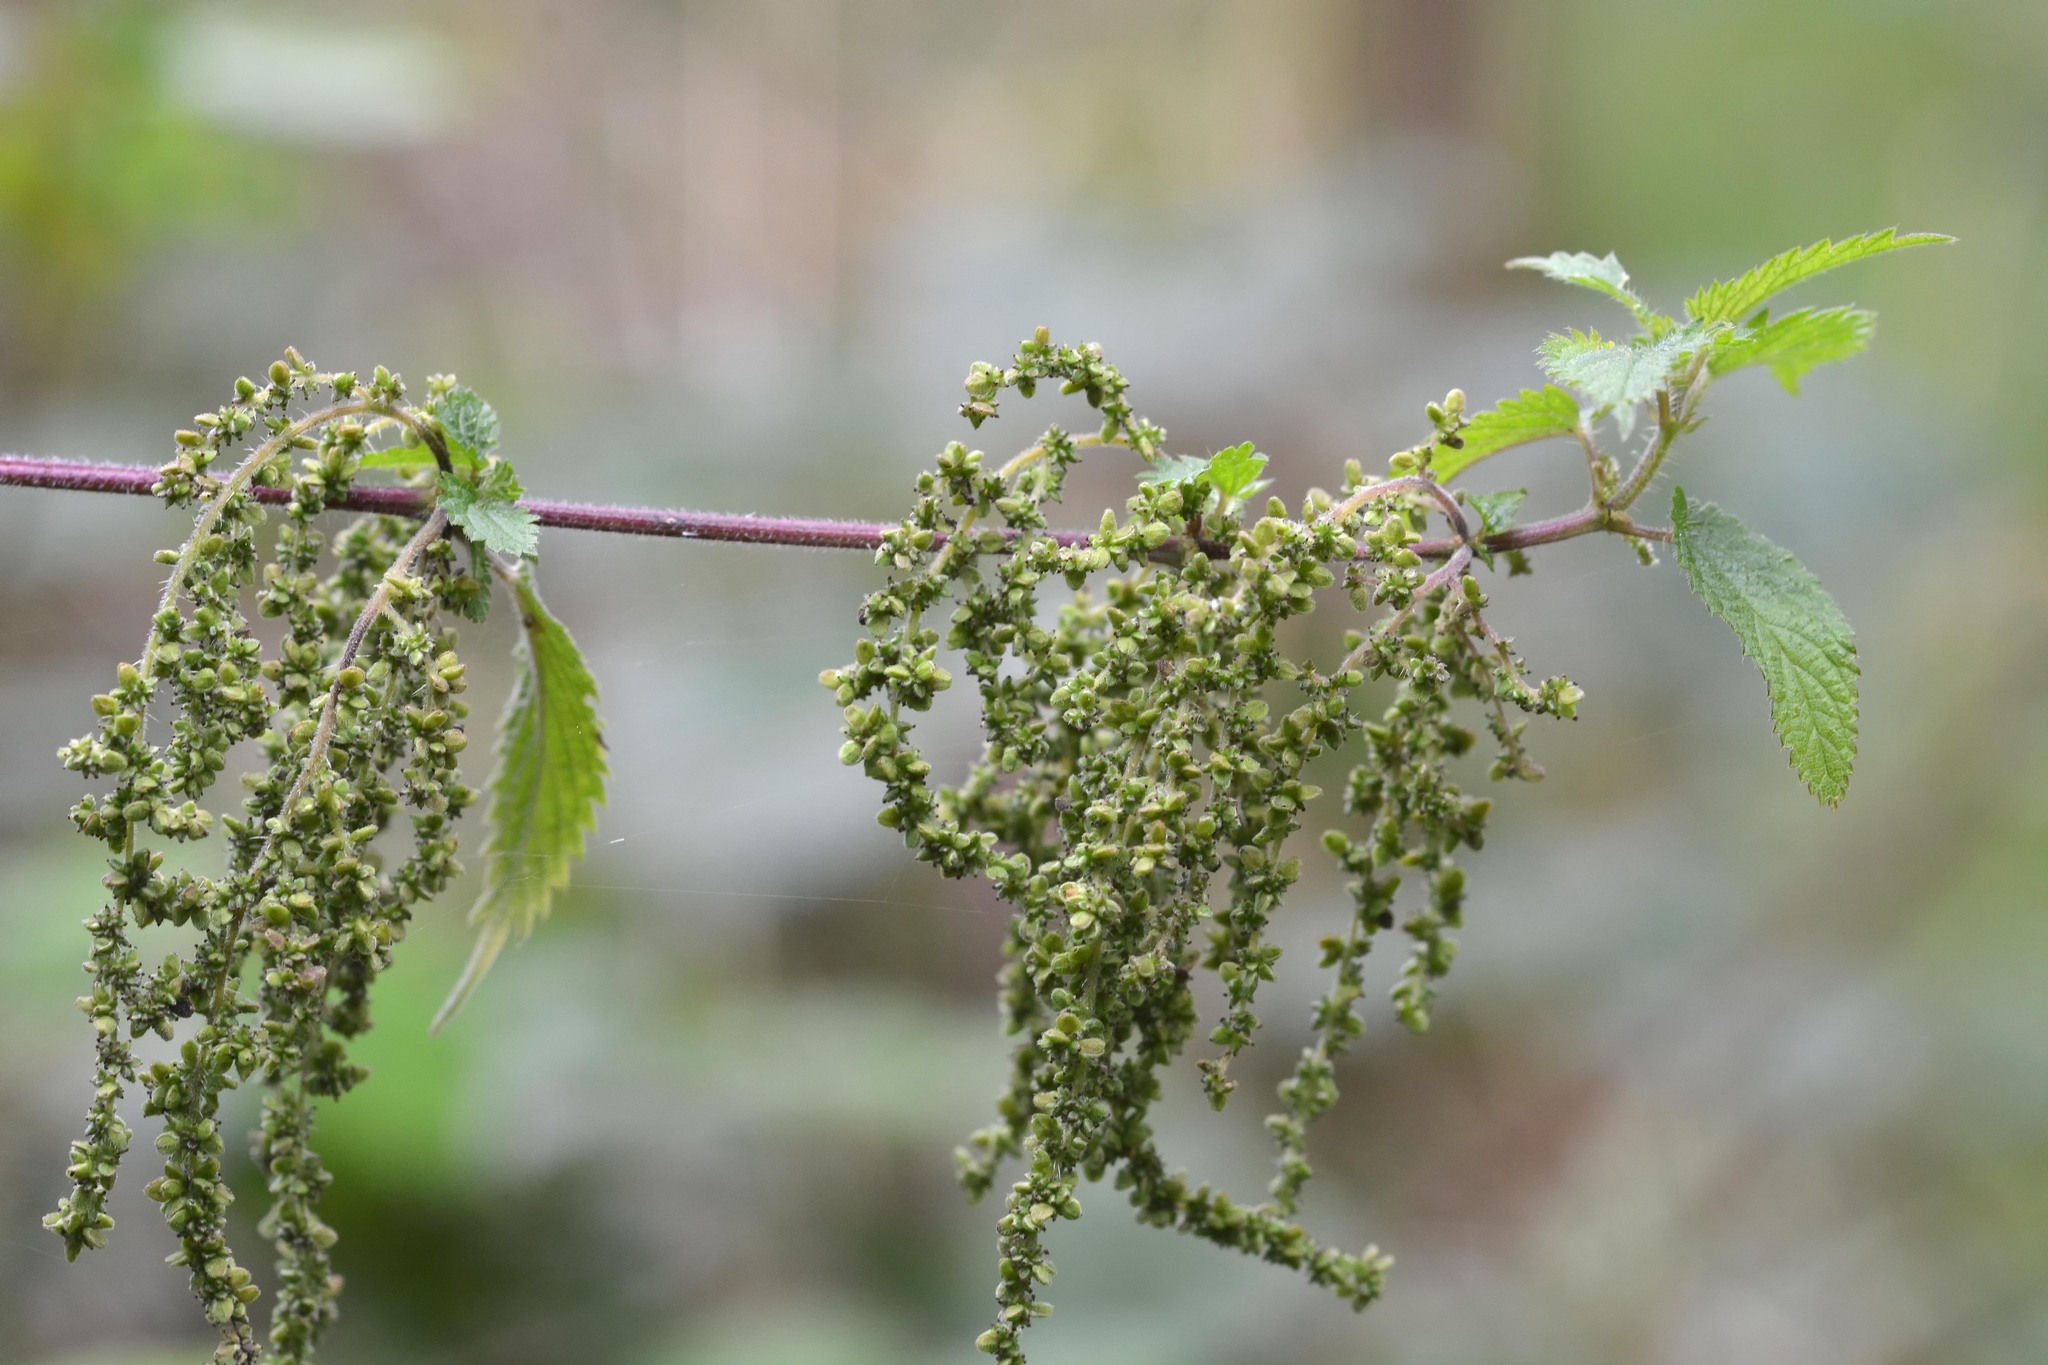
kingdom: Plantae
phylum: Tracheophyta
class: Magnoliopsida
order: Rosales
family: Urticaceae
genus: Urtica
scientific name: Urtica dioica
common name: Common nettle
